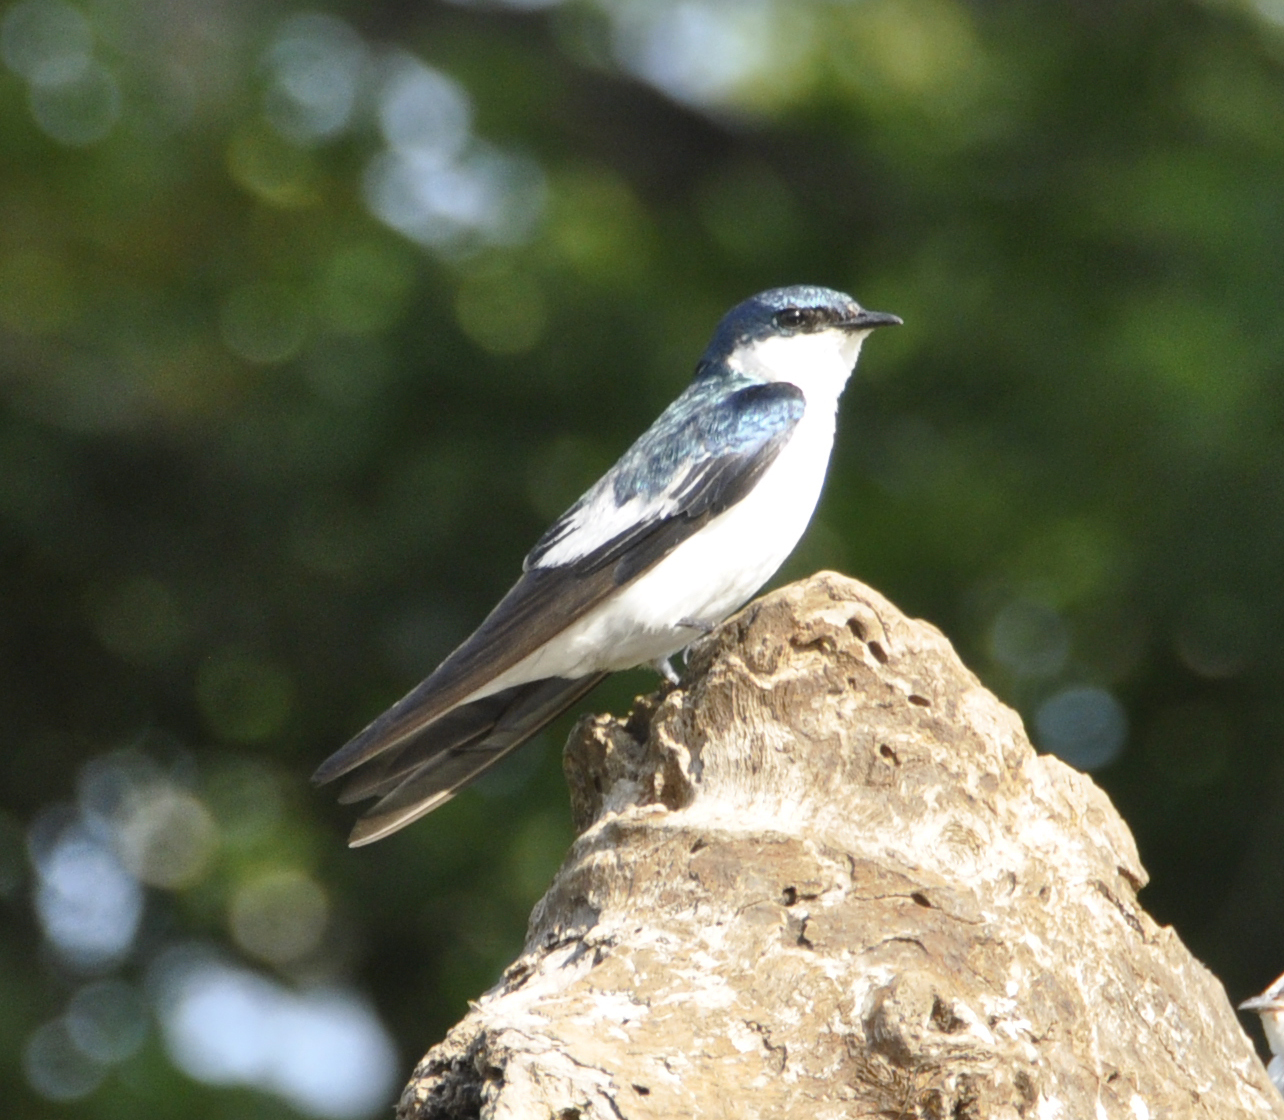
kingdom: Animalia
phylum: Chordata
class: Aves
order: Passeriformes
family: Hirundinidae
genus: Tachycineta
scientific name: Tachycineta albiventer
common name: White-winged swallow
